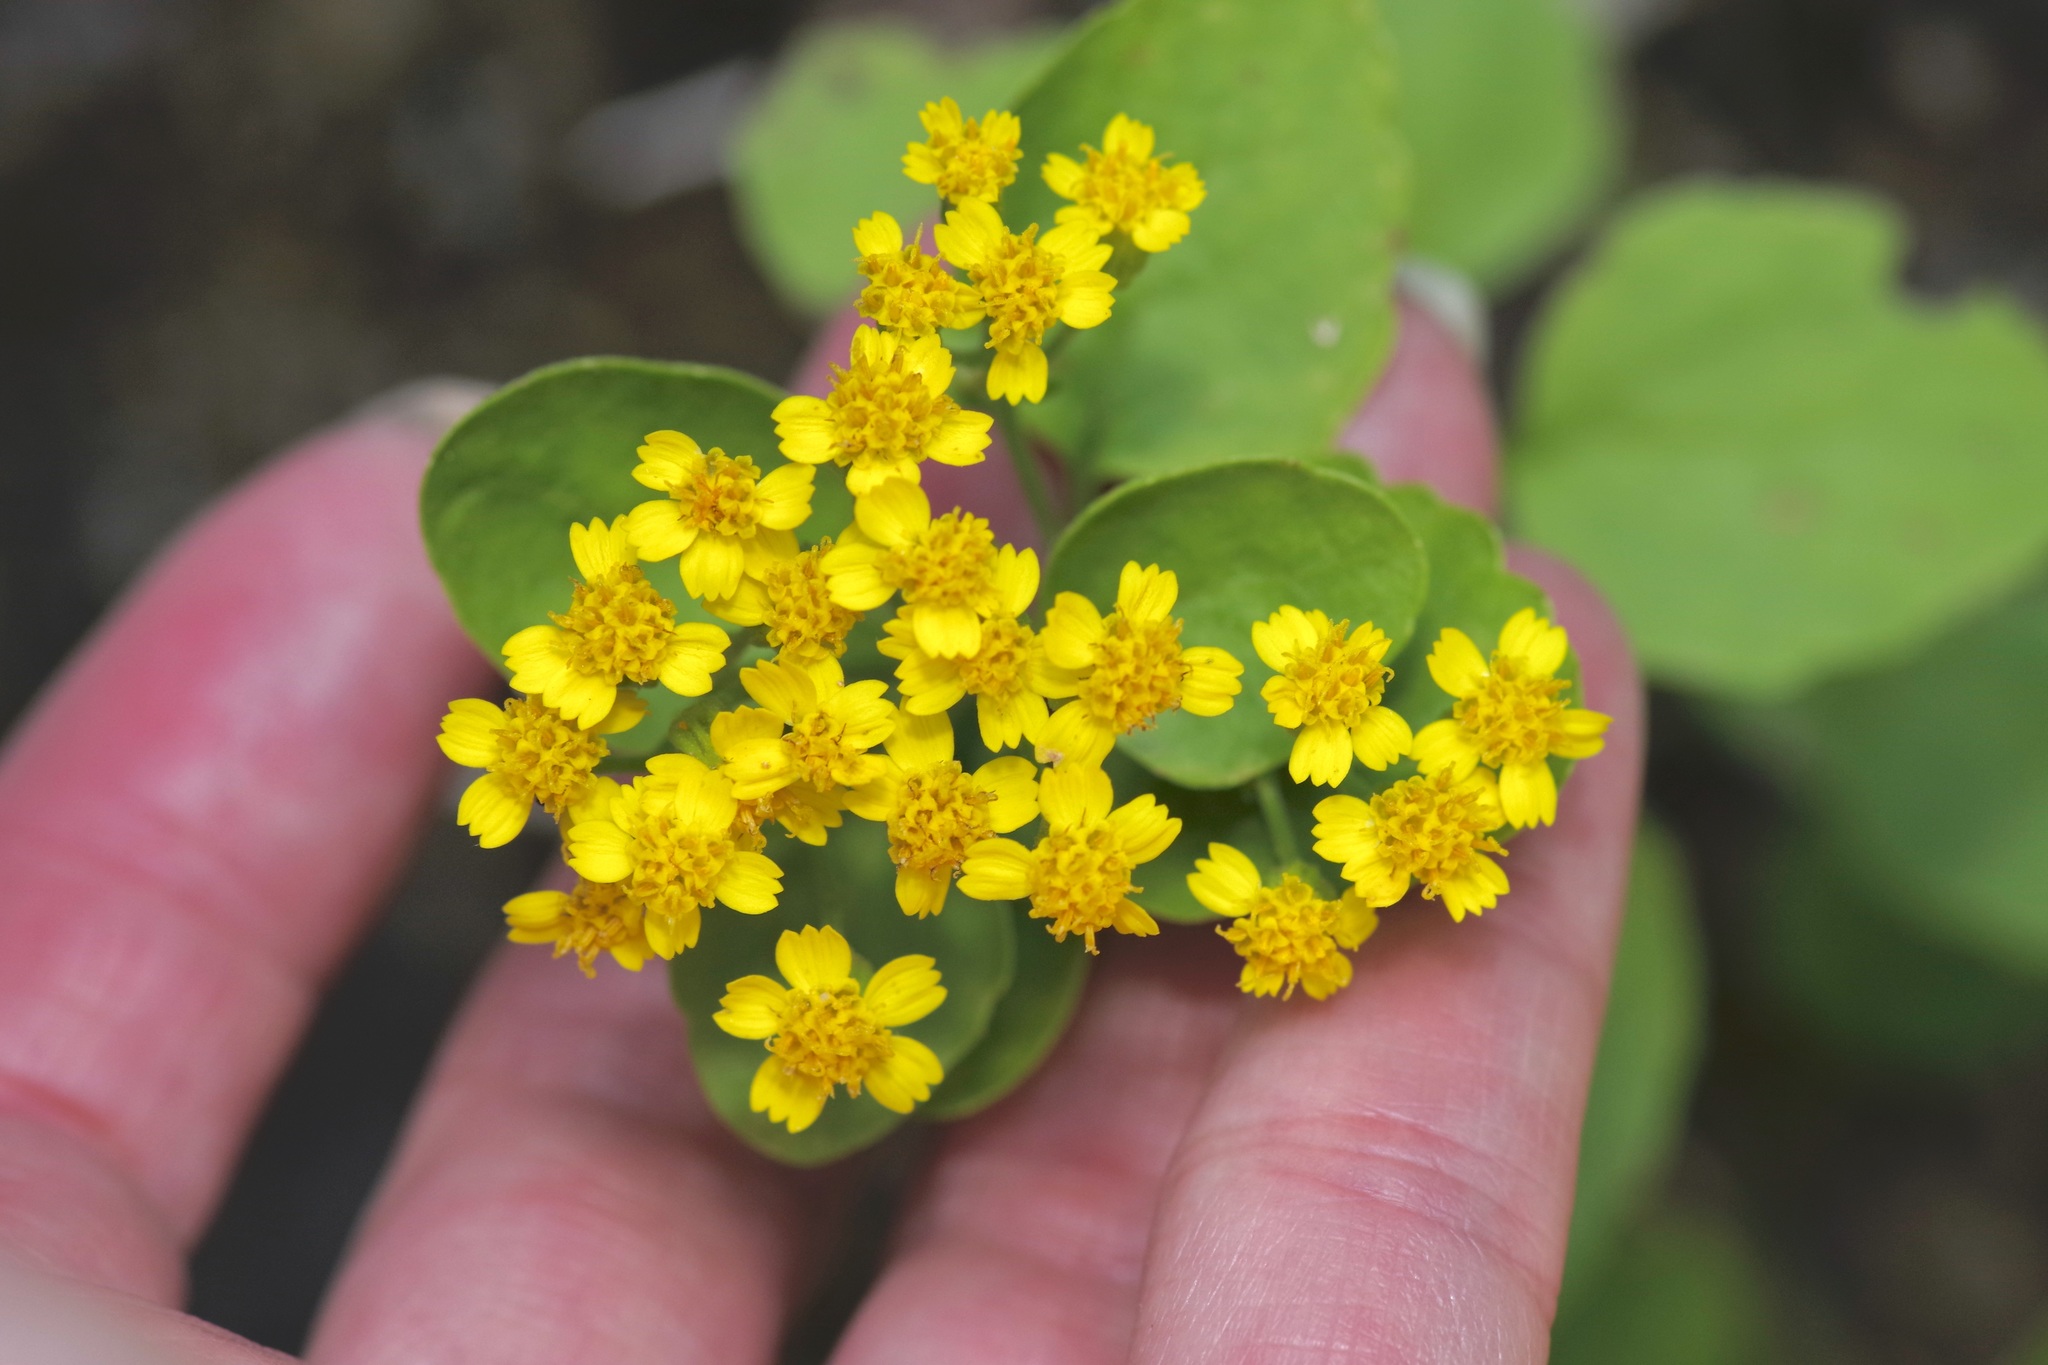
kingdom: Plantae
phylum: Tracheophyta
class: Magnoliopsida
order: Asterales
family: Asteraceae
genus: Laphamia
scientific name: Laphamia lindheimeri
